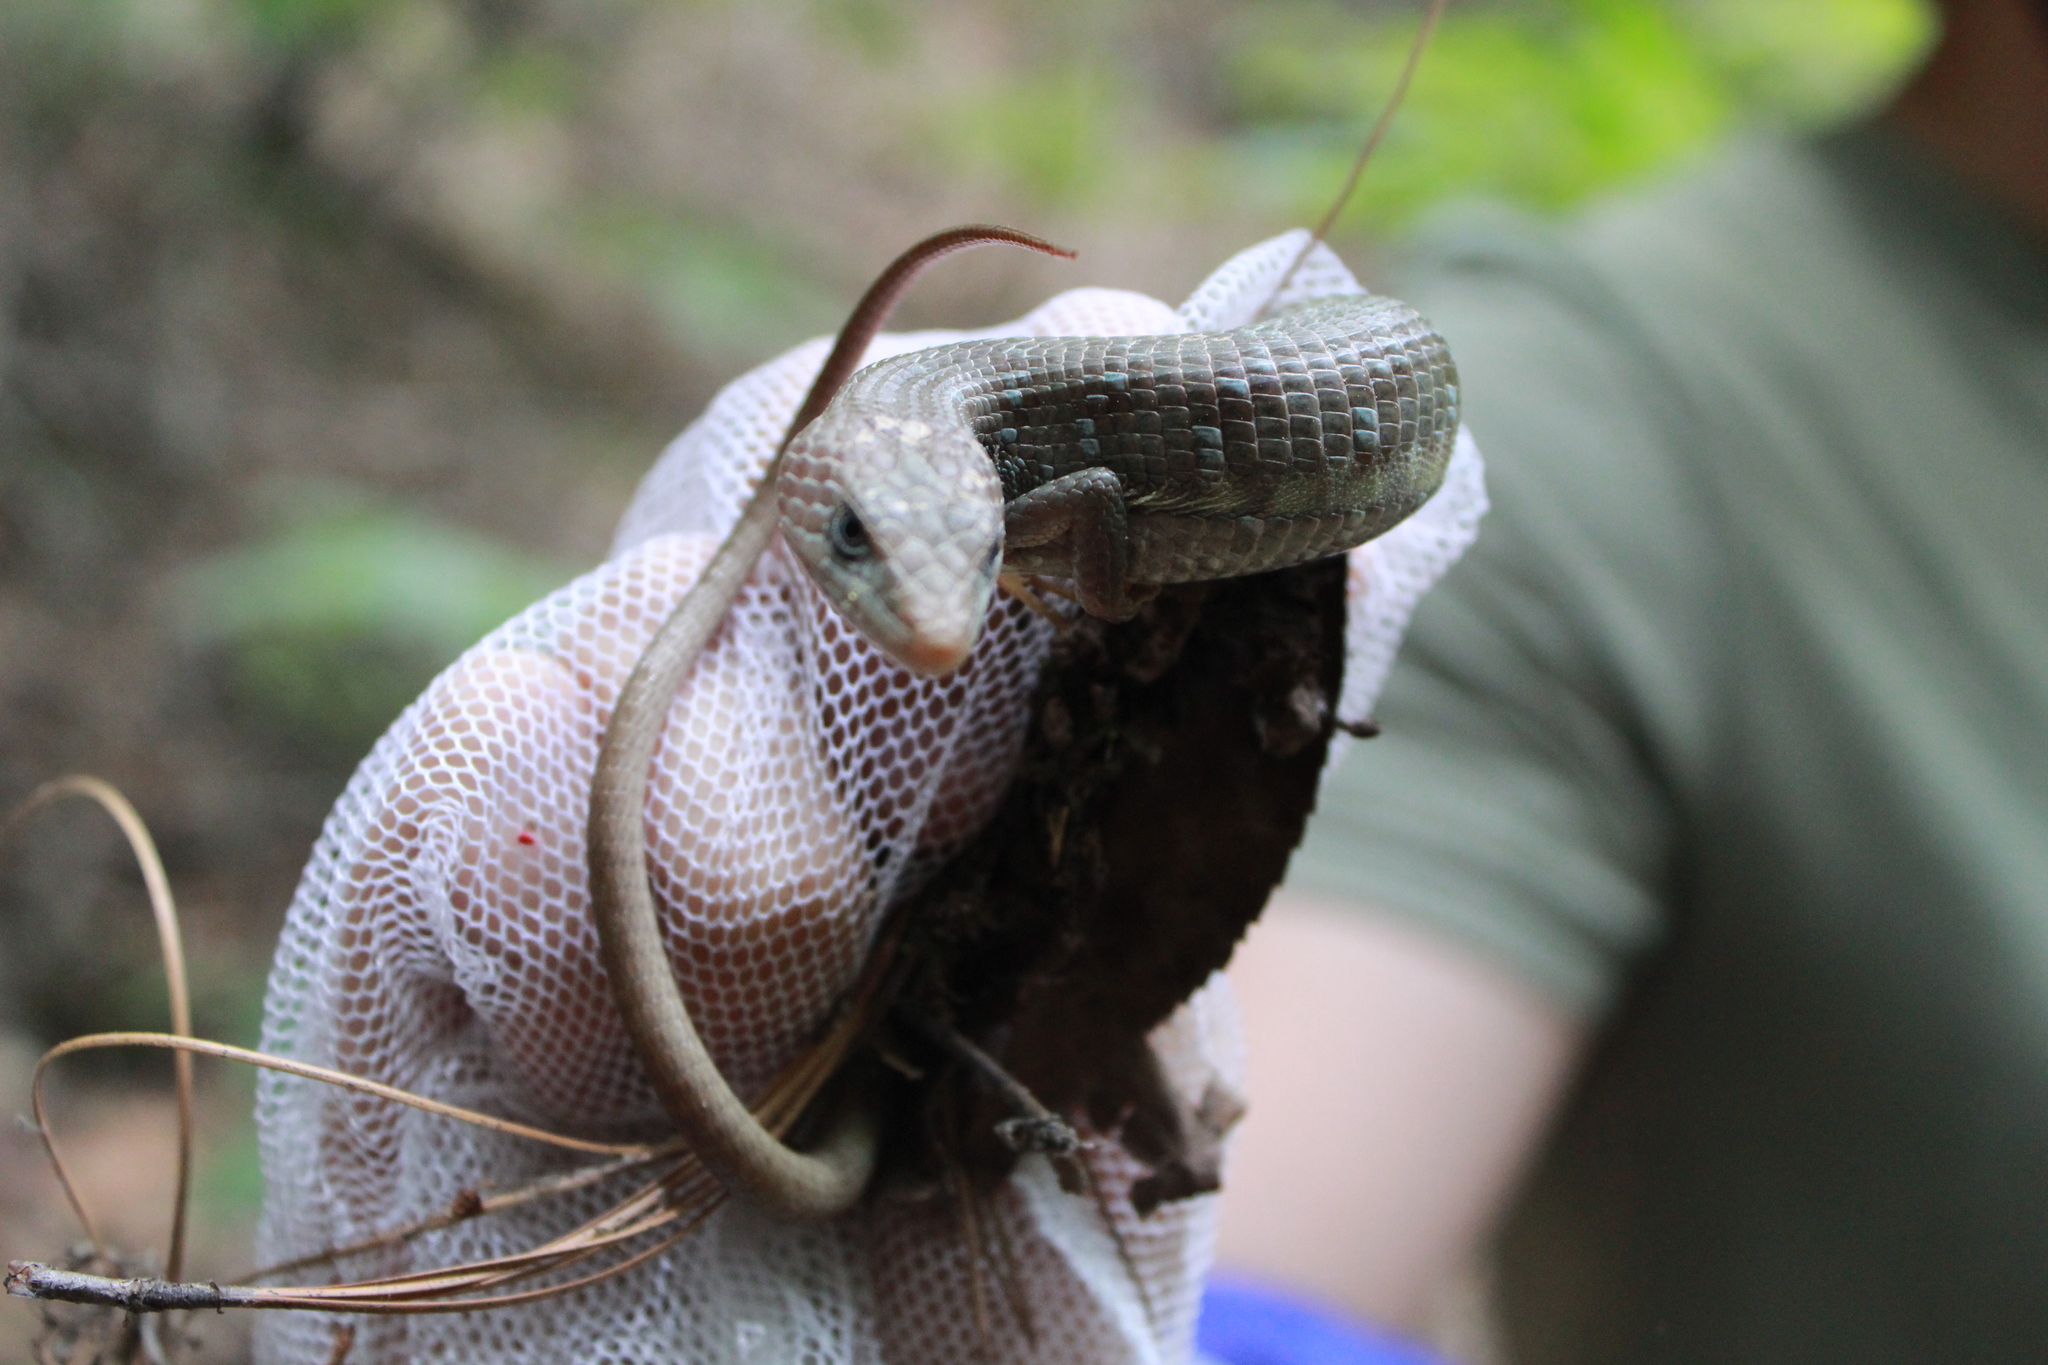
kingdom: Animalia
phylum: Chordata
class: Squamata
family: Anguidae
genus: Gerrhonotus
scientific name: Gerrhonotus infernalis
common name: Texas alligator lizard
